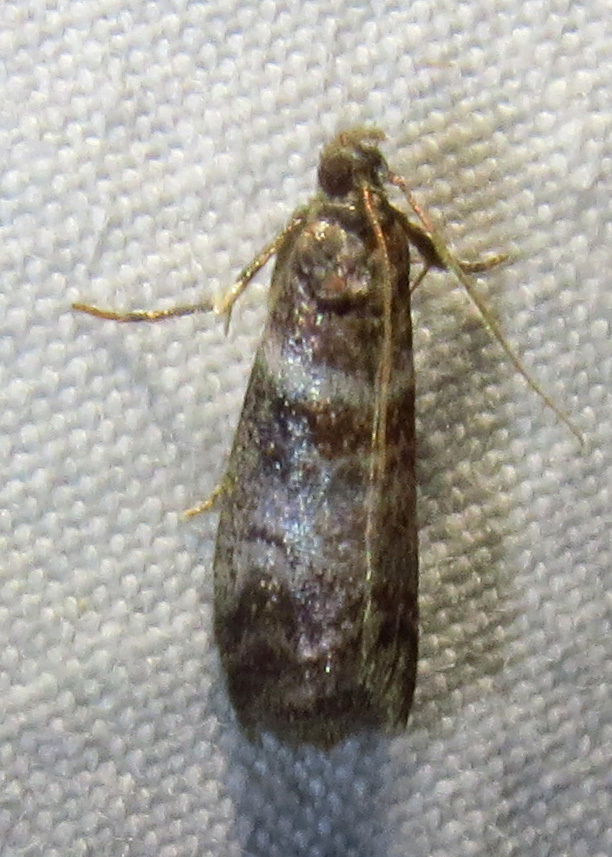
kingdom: Animalia
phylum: Arthropoda
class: Insecta
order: Lepidoptera
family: Pyralidae
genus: Sciota
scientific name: Sciota uvinella
